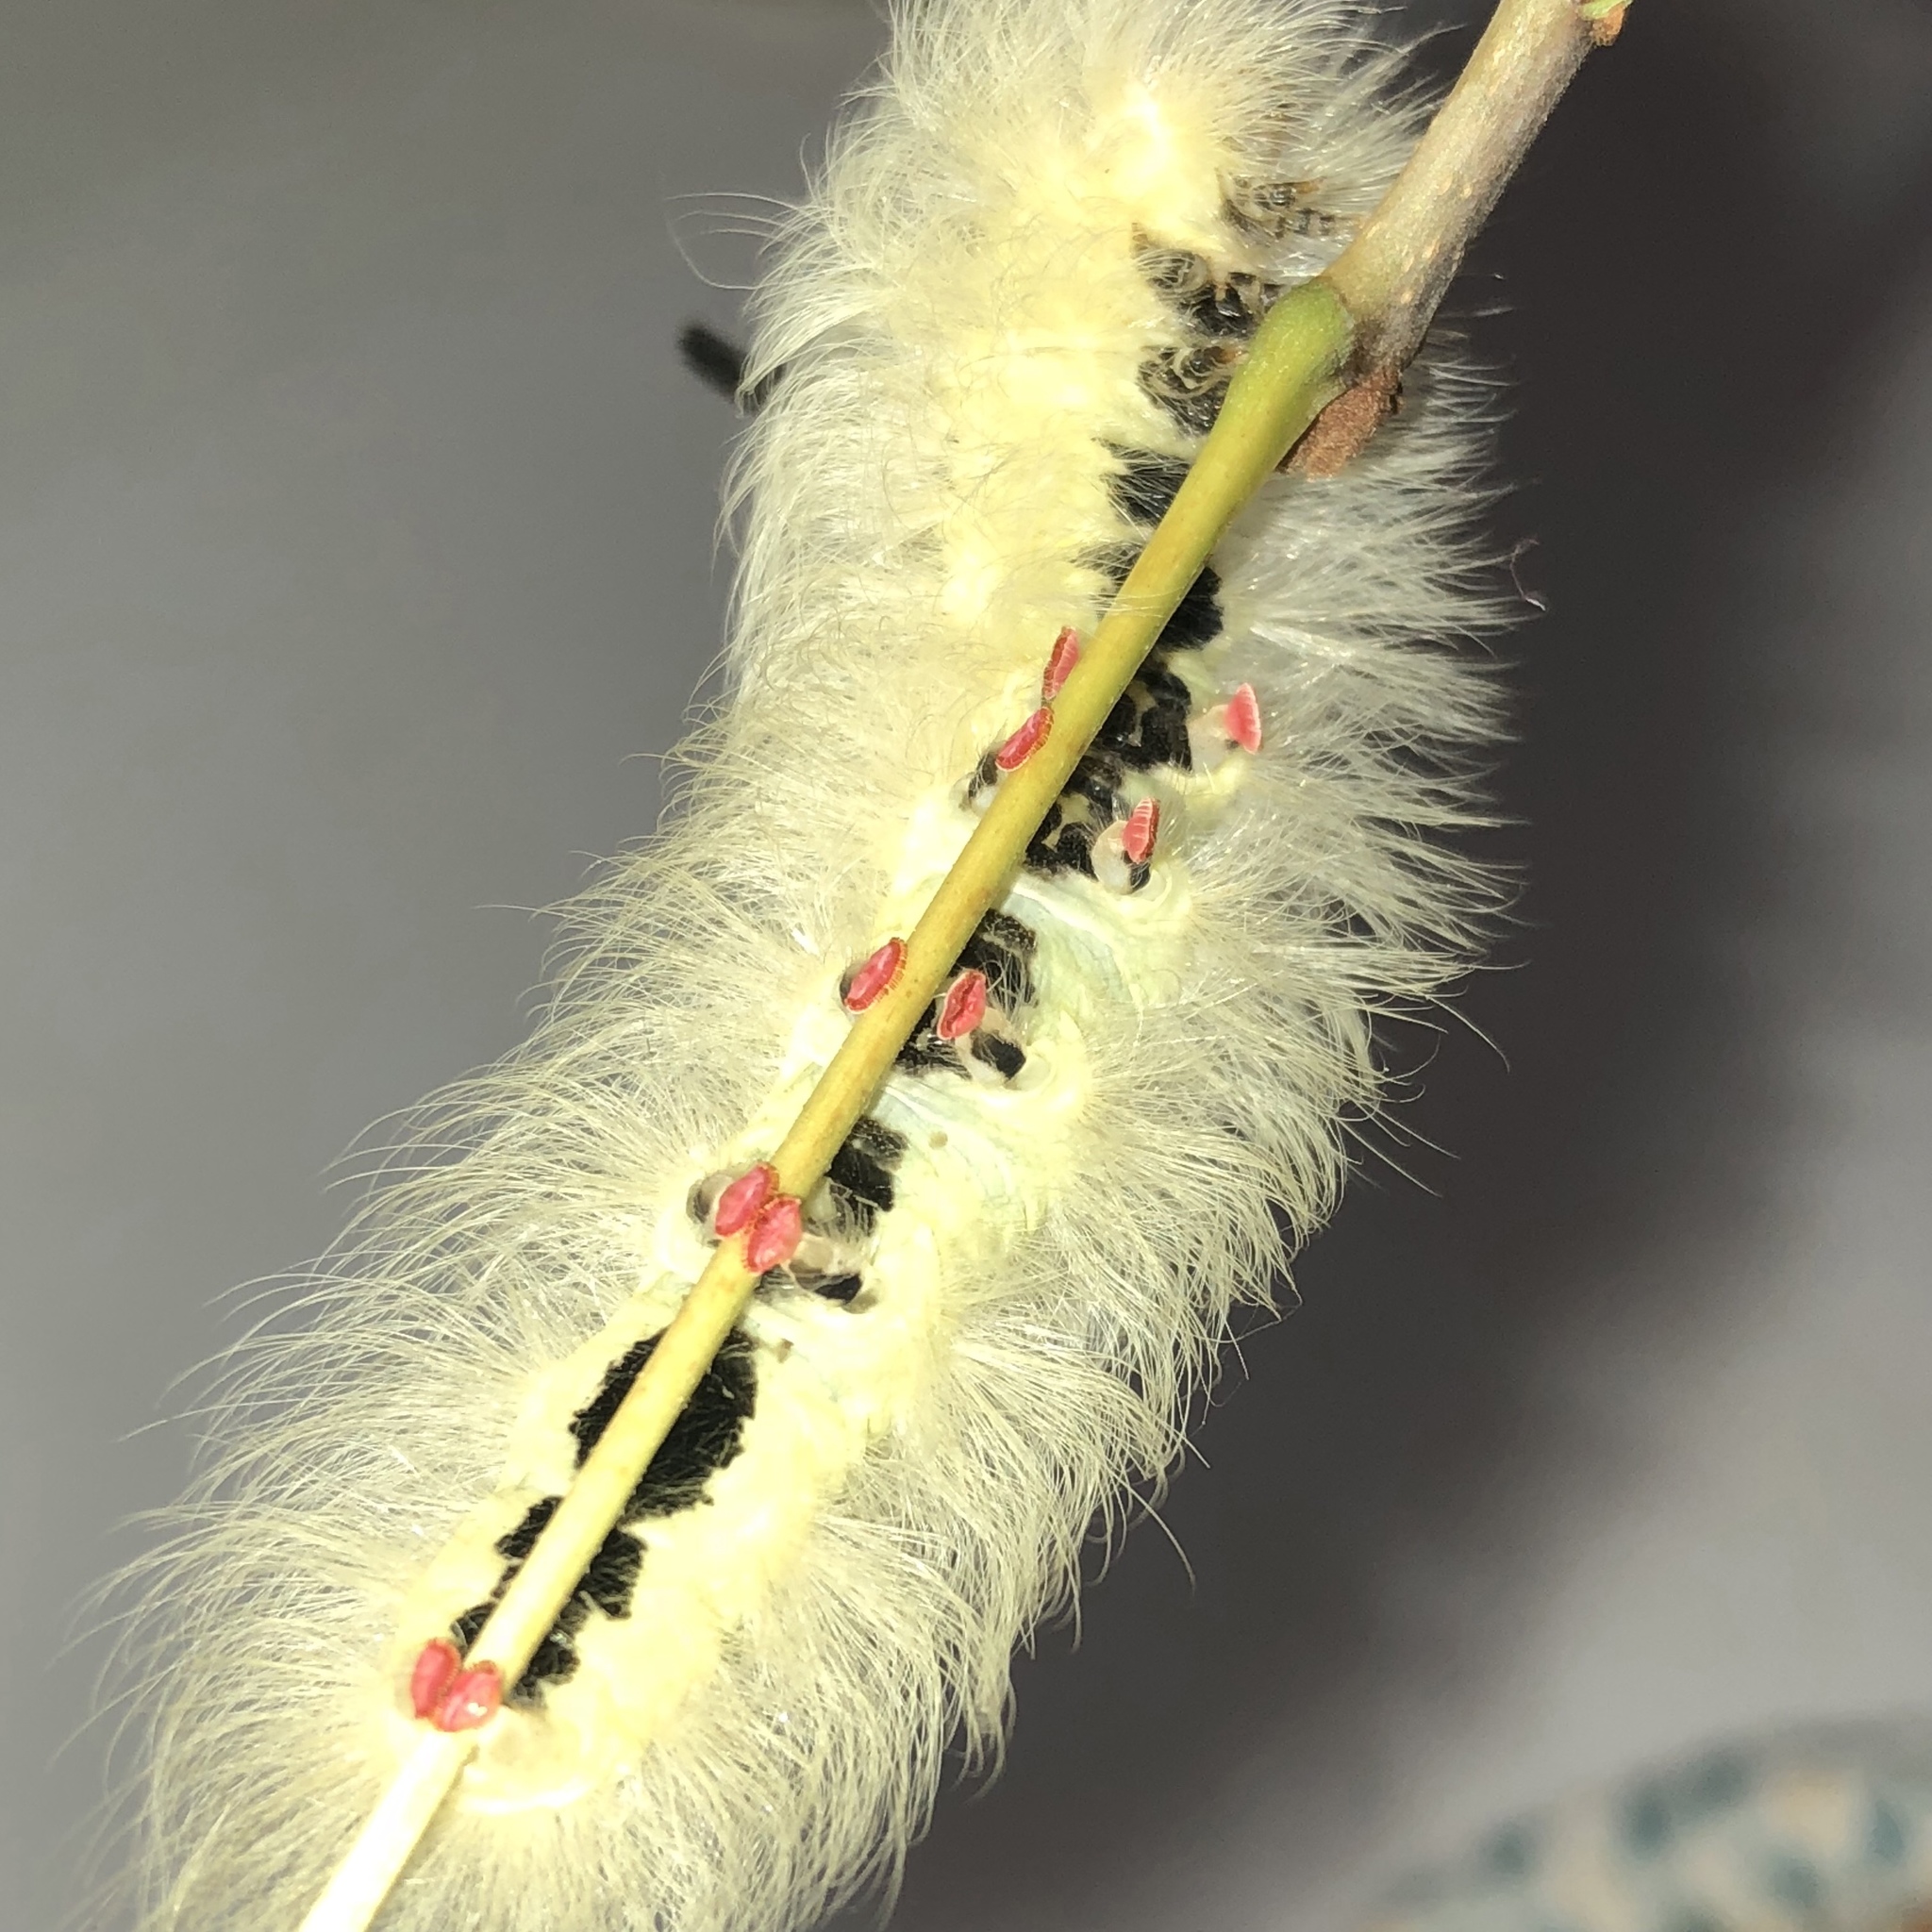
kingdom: Animalia
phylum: Arthropoda
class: Insecta
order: Lepidoptera
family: Apatelodidae
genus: Hygrochroa
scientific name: Hygrochroa Apatelodes torrefacta
